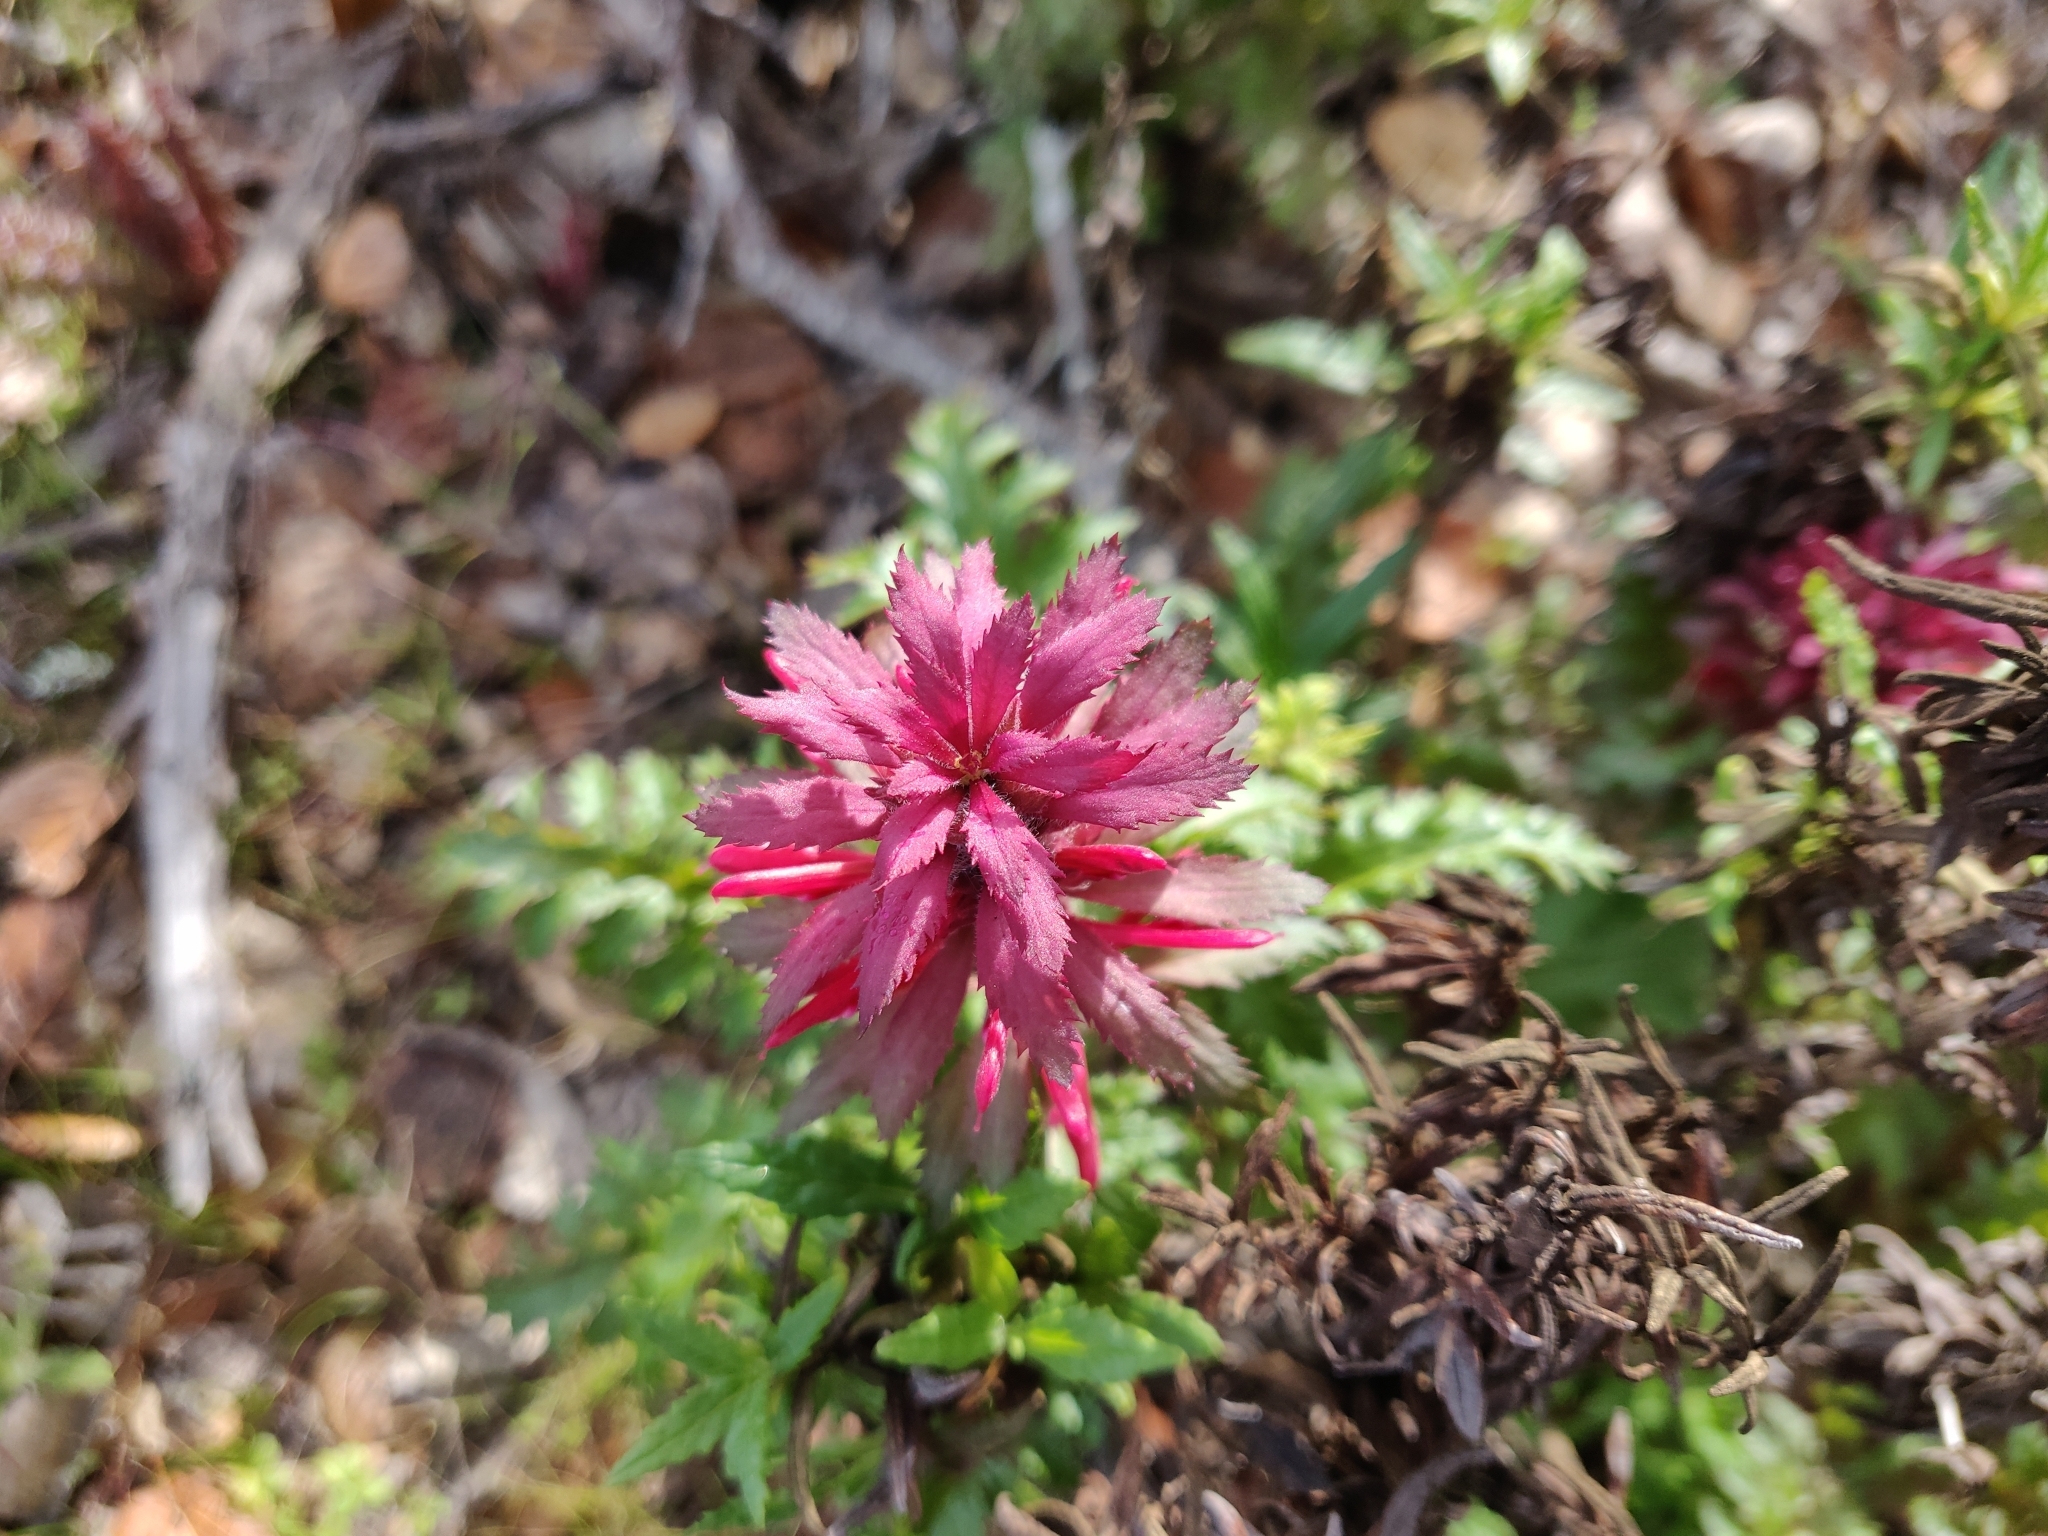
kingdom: Plantae
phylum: Tracheophyta
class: Magnoliopsida
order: Lamiales
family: Orobanchaceae
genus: Pedicularis
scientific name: Pedicularis densiflora
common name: Indian warrior
